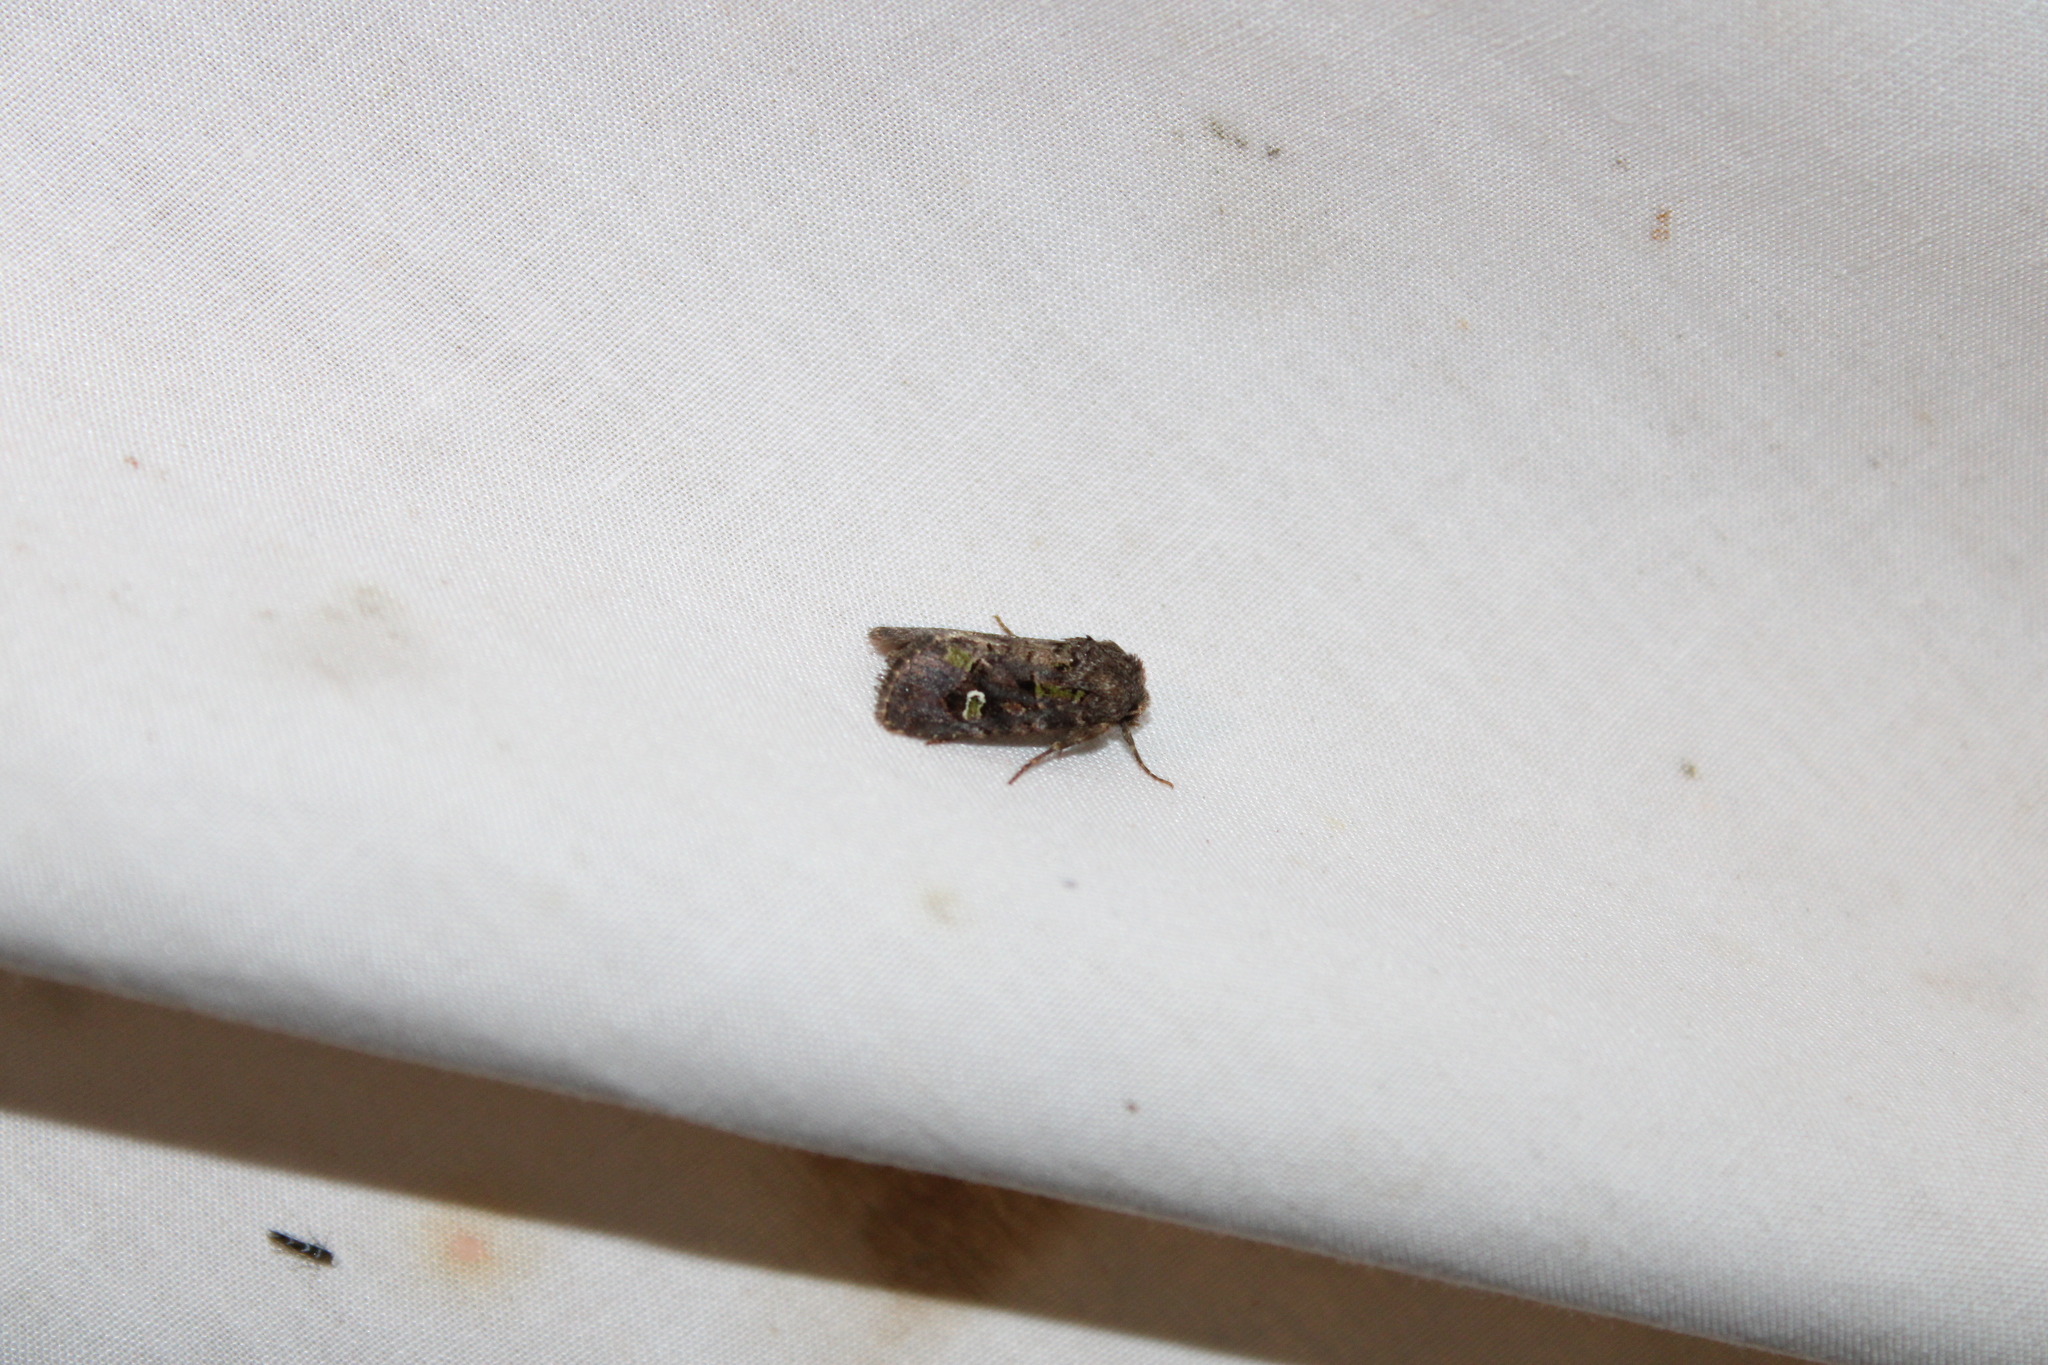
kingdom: Animalia
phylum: Arthropoda
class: Insecta
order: Lepidoptera
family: Noctuidae
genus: Lacinipolia
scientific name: Lacinipolia renigera
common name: Kidney-spotted minor
